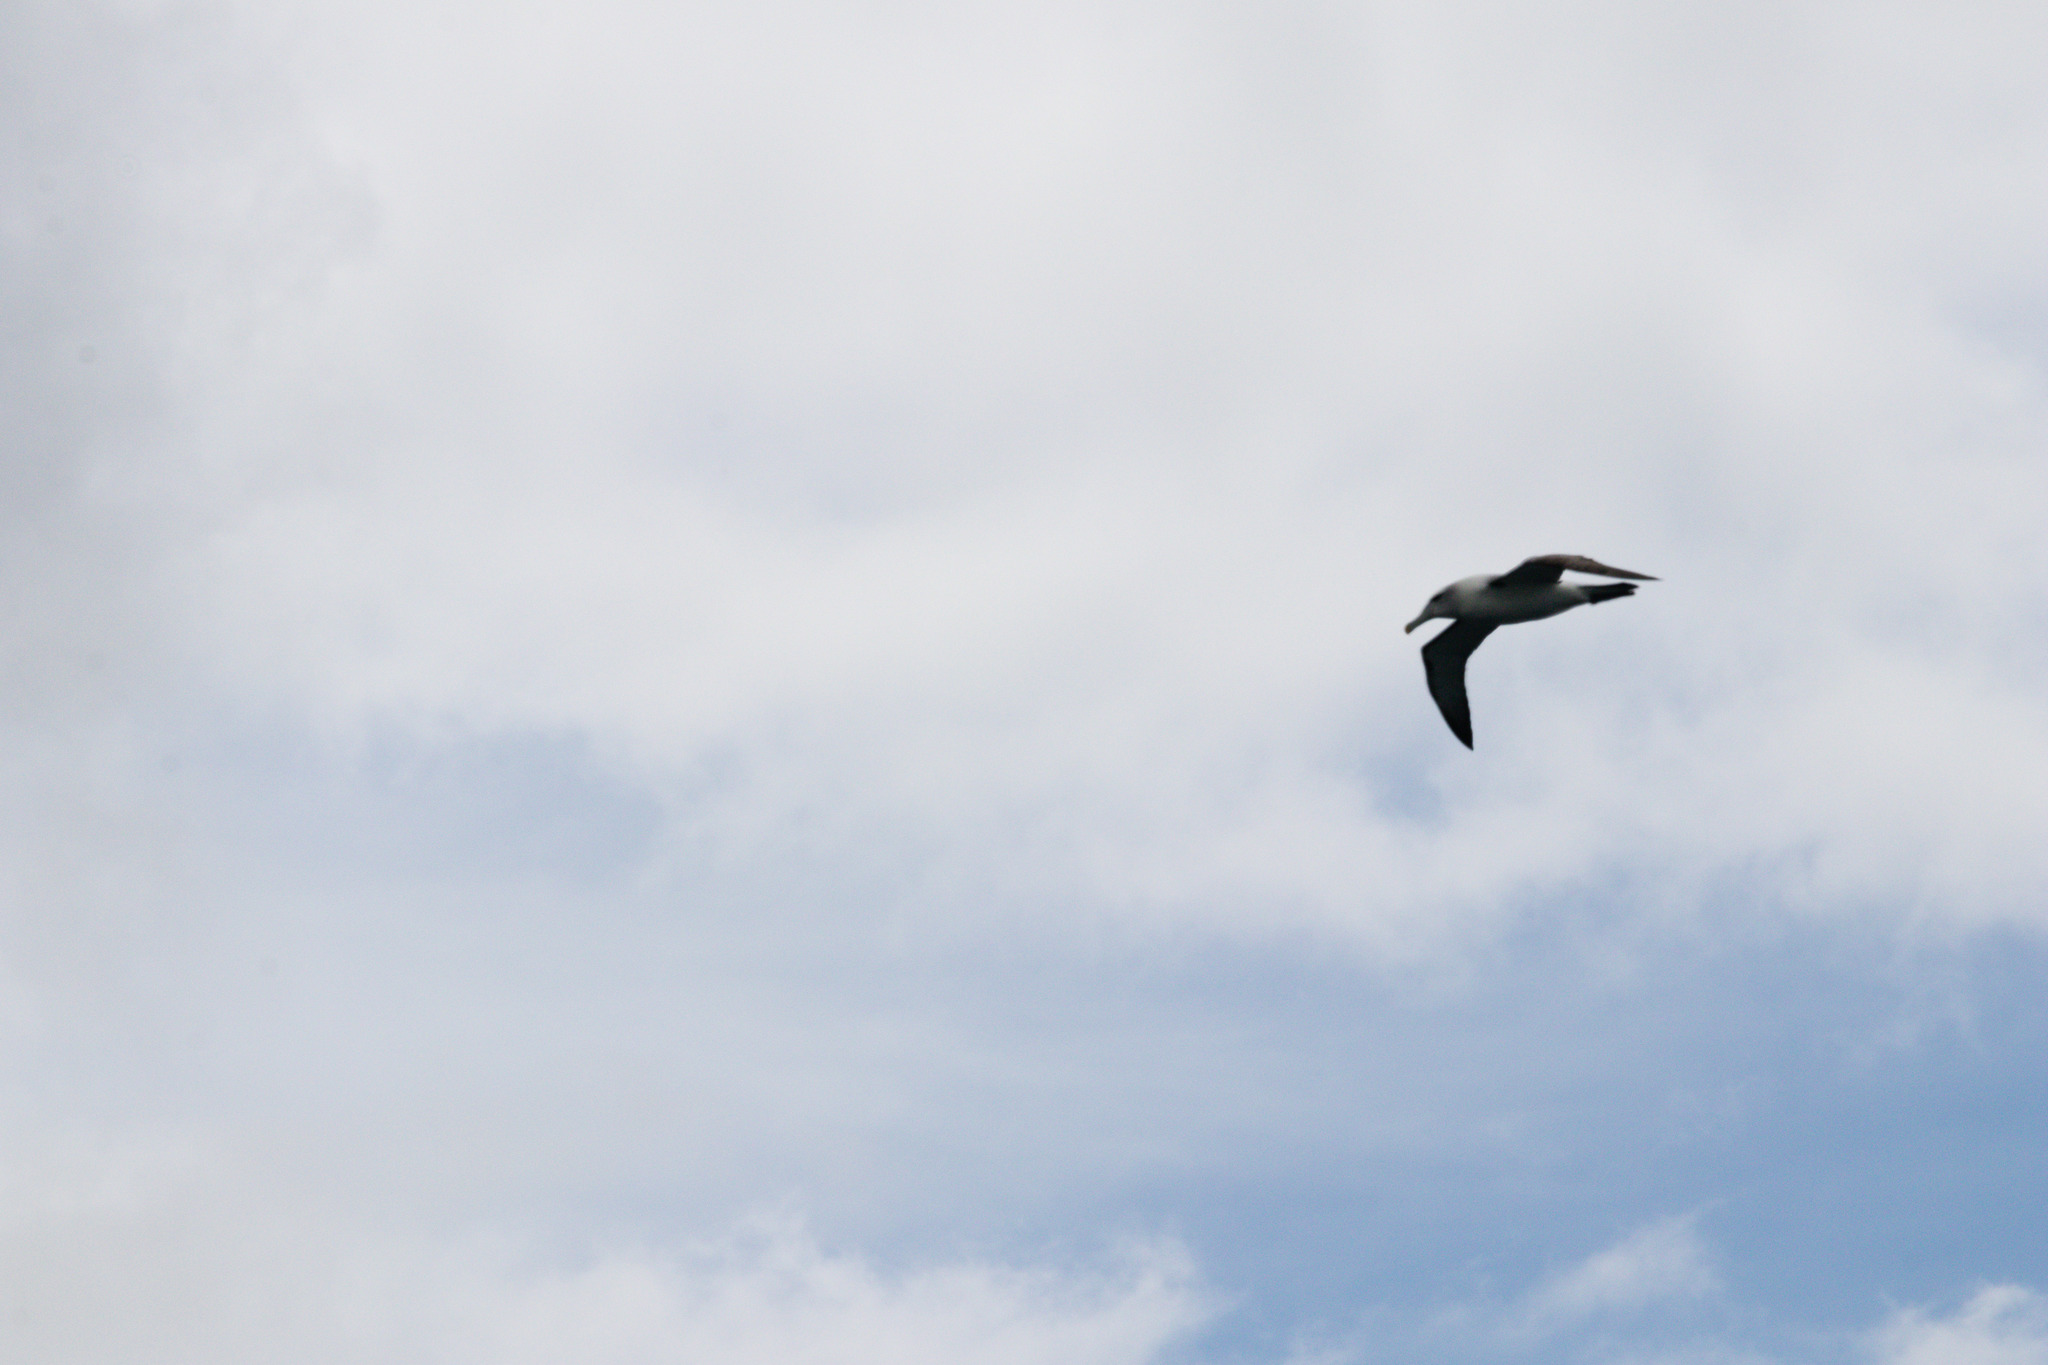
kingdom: Animalia
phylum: Chordata
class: Aves
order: Procellariiformes
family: Diomedeidae
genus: Thalassarche
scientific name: Thalassarche cauta
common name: Shy albatross
